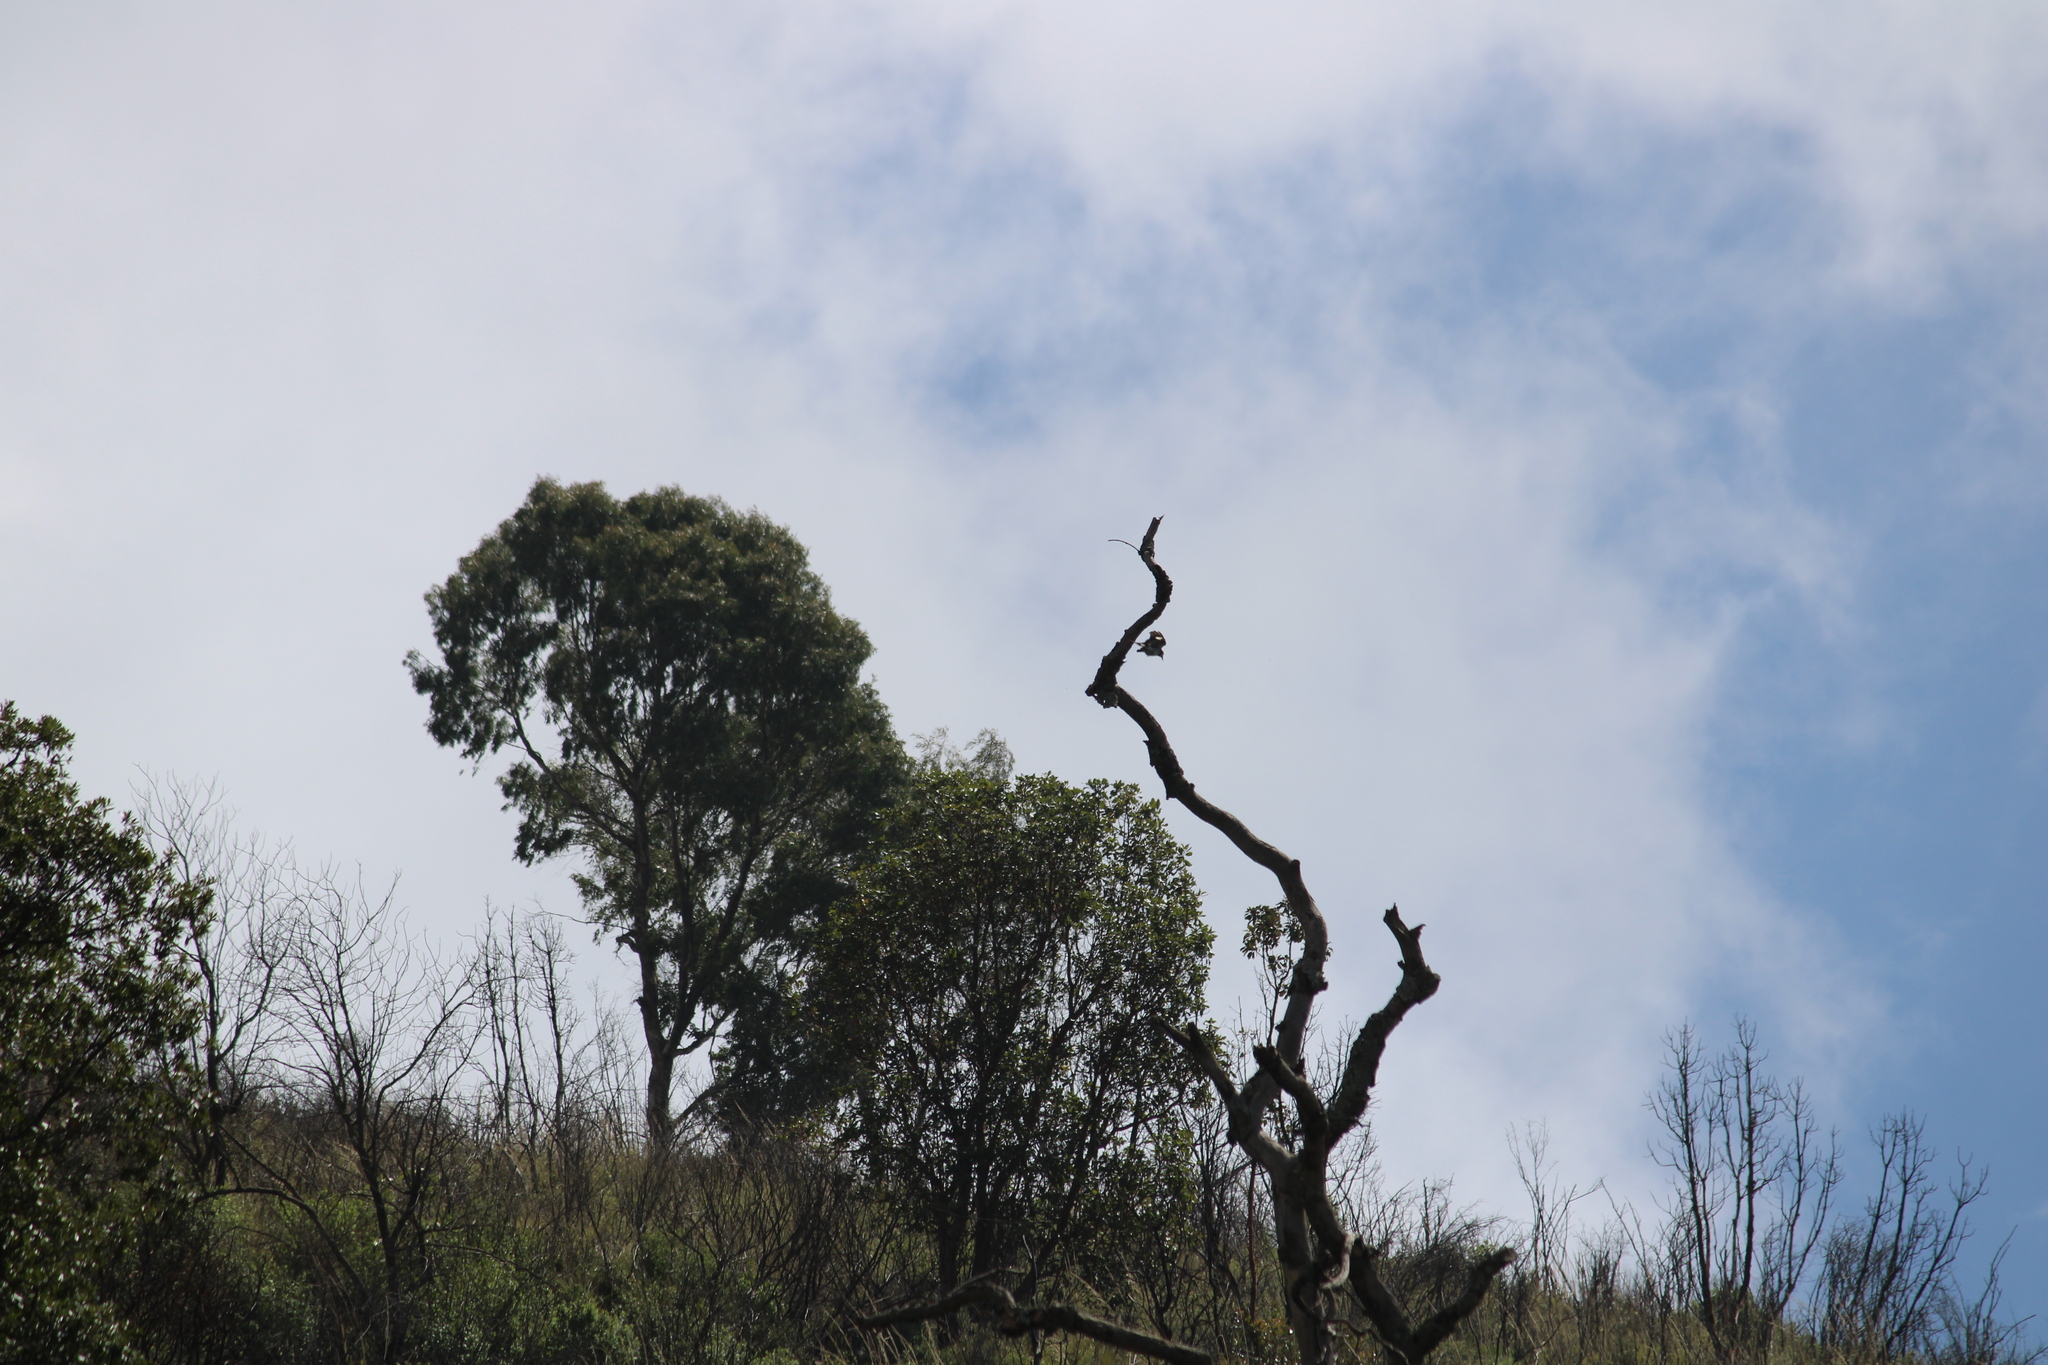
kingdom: Animalia
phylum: Chordata
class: Aves
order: Piciformes
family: Picidae
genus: Melanerpes
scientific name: Melanerpes formicivorus
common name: Acorn woodpecker
